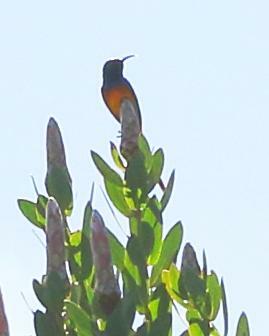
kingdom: Animalia
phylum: Chordata
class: Aves
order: Passeriformes
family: Nectariniidae
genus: Anthobaphes
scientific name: Anthobaphes violacea
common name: Orange-breasted sunbird
